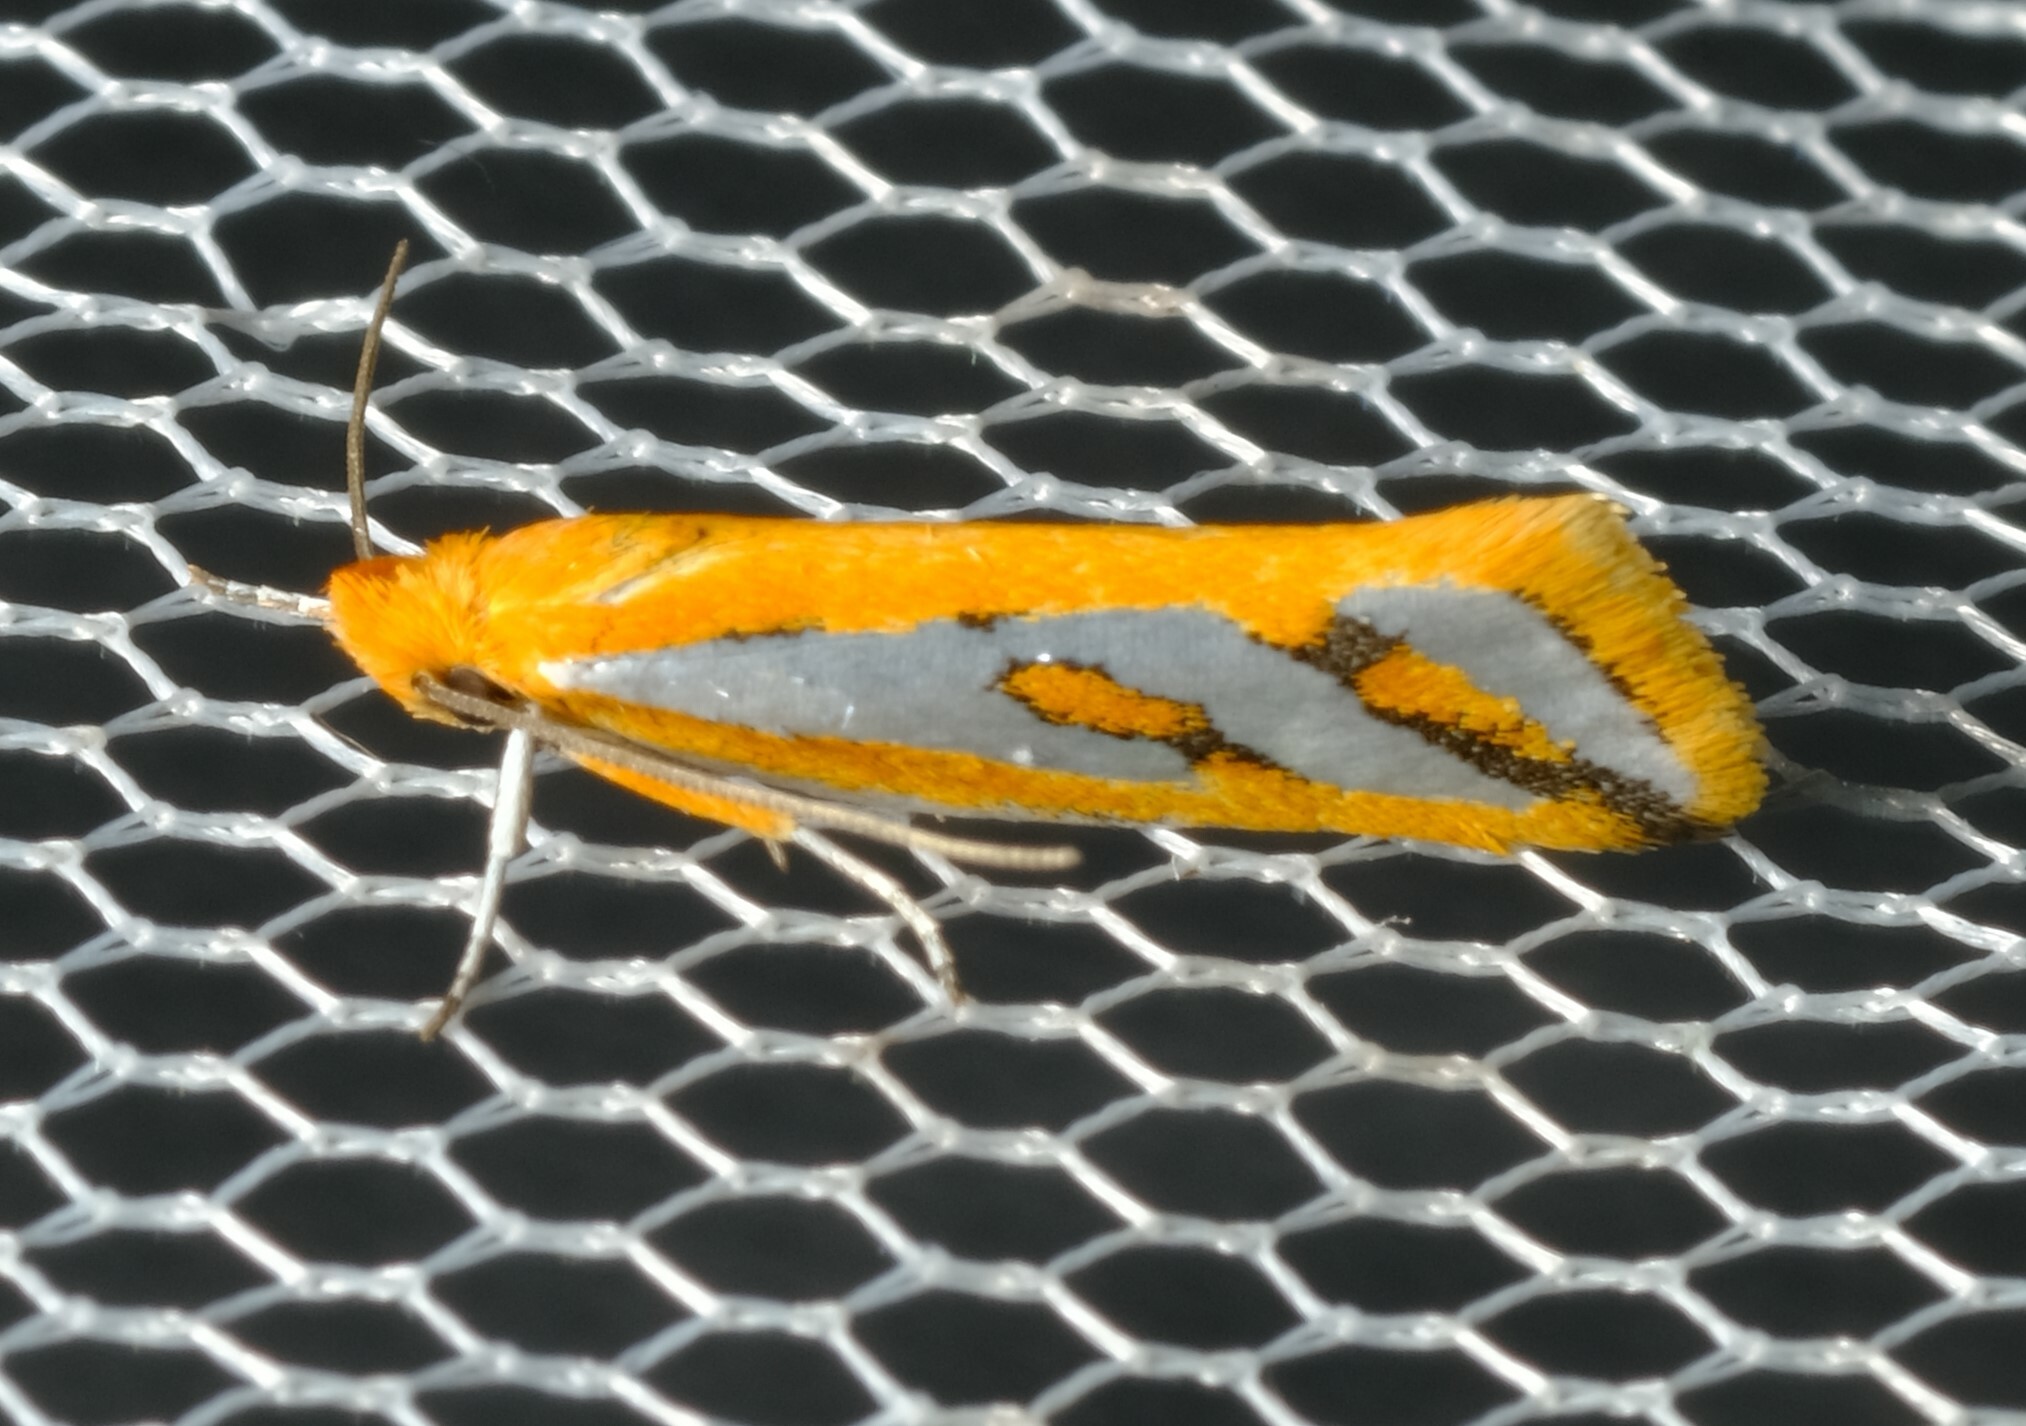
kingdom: Animalia
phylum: Arthropoda
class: Insecta
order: Lepidoptera
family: Depressariidae
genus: Thudaca
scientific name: Thudaca haplonota
